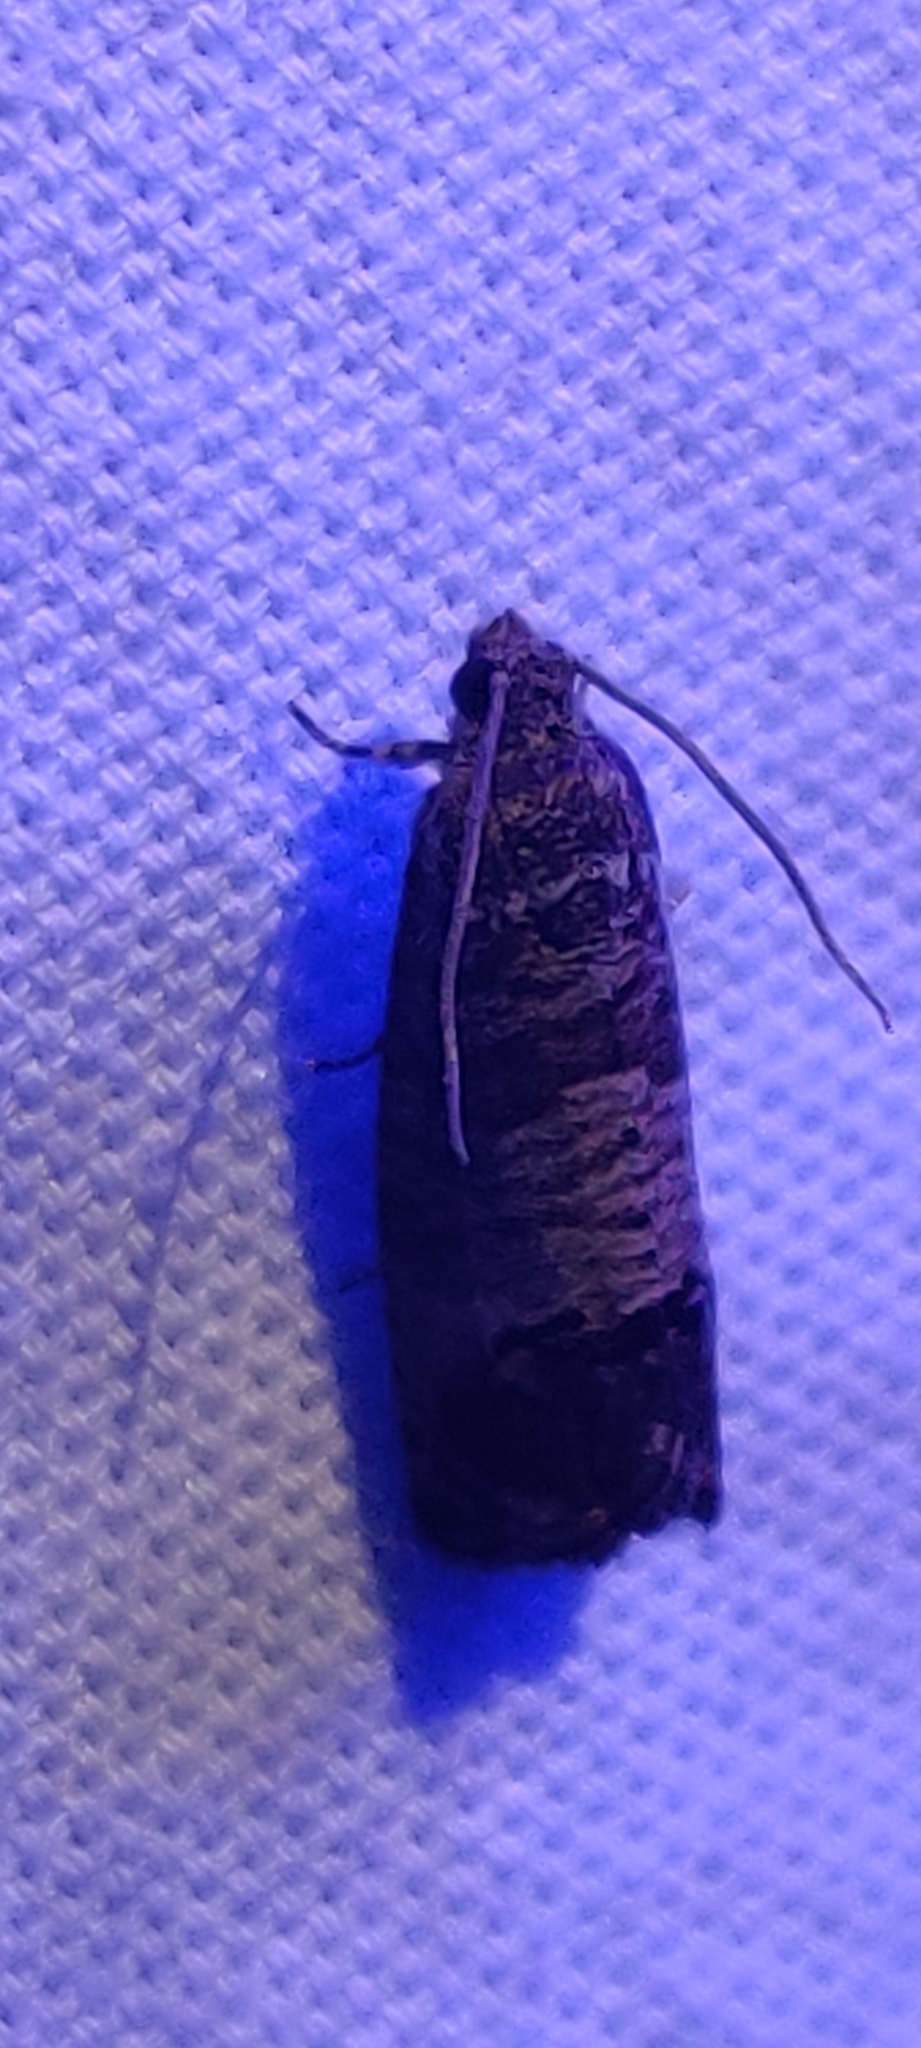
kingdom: Animalia
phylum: Arthropoda
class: Insecta
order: Lepidoptera
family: Tortricidae
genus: Cydia
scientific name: Cydia pomonella
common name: Codling moth
